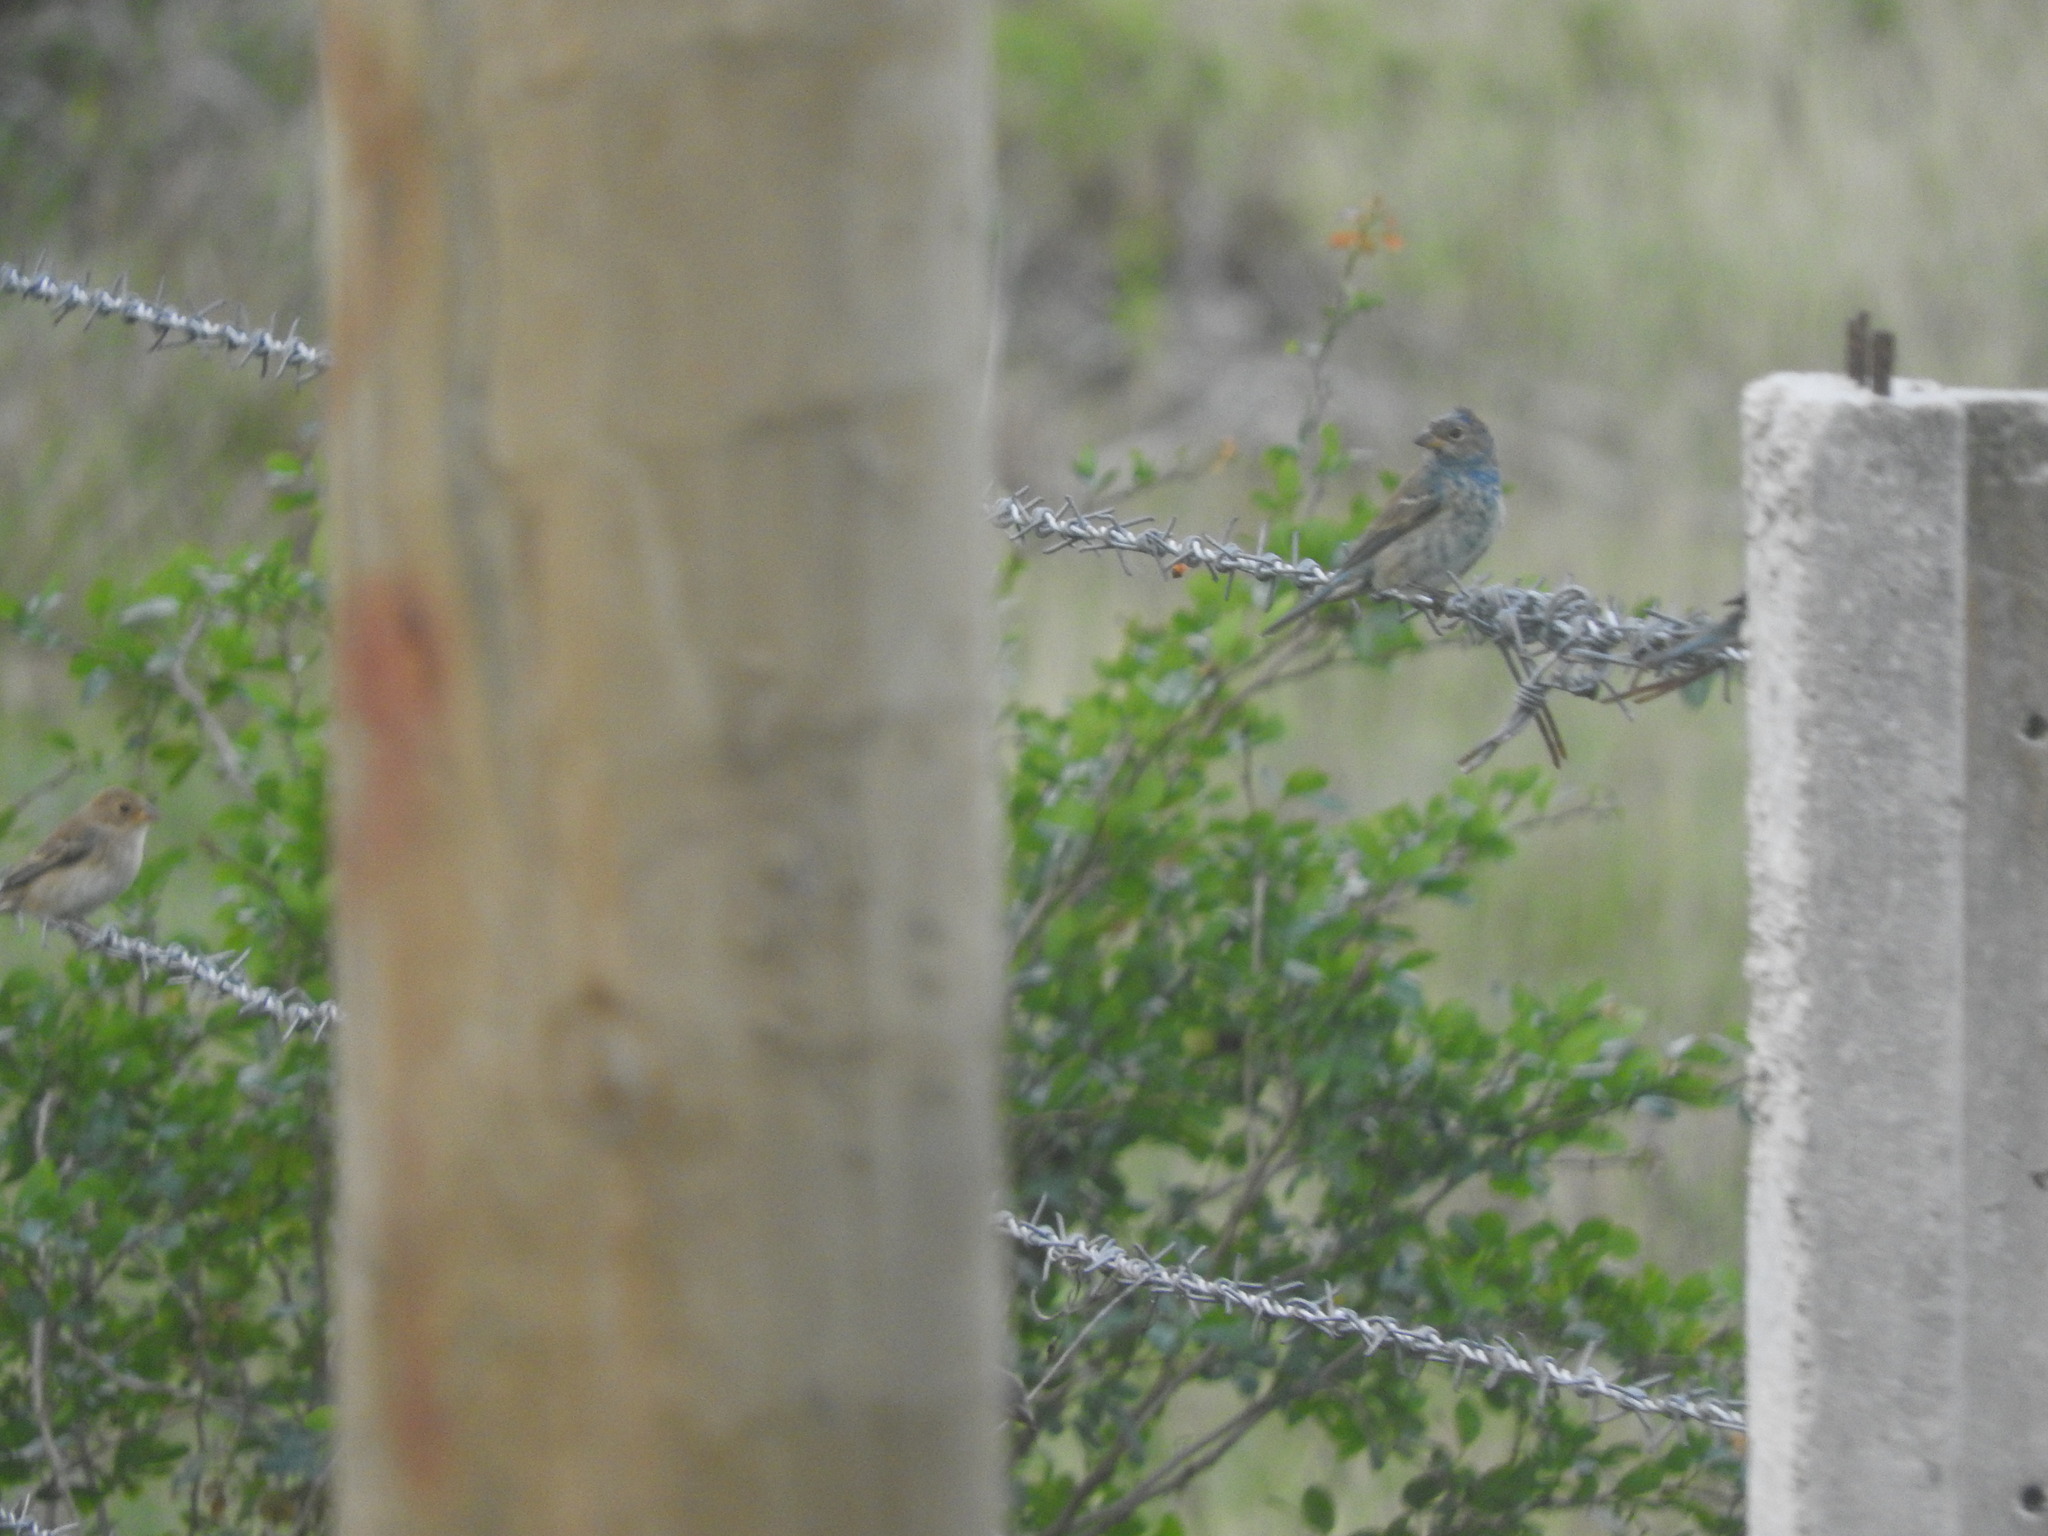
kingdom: Animalia
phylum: Chordata
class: Aves
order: Passeriformes
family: Cardinalidae
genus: Passerina
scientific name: Passerina cyanea
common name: Indigo bunting
